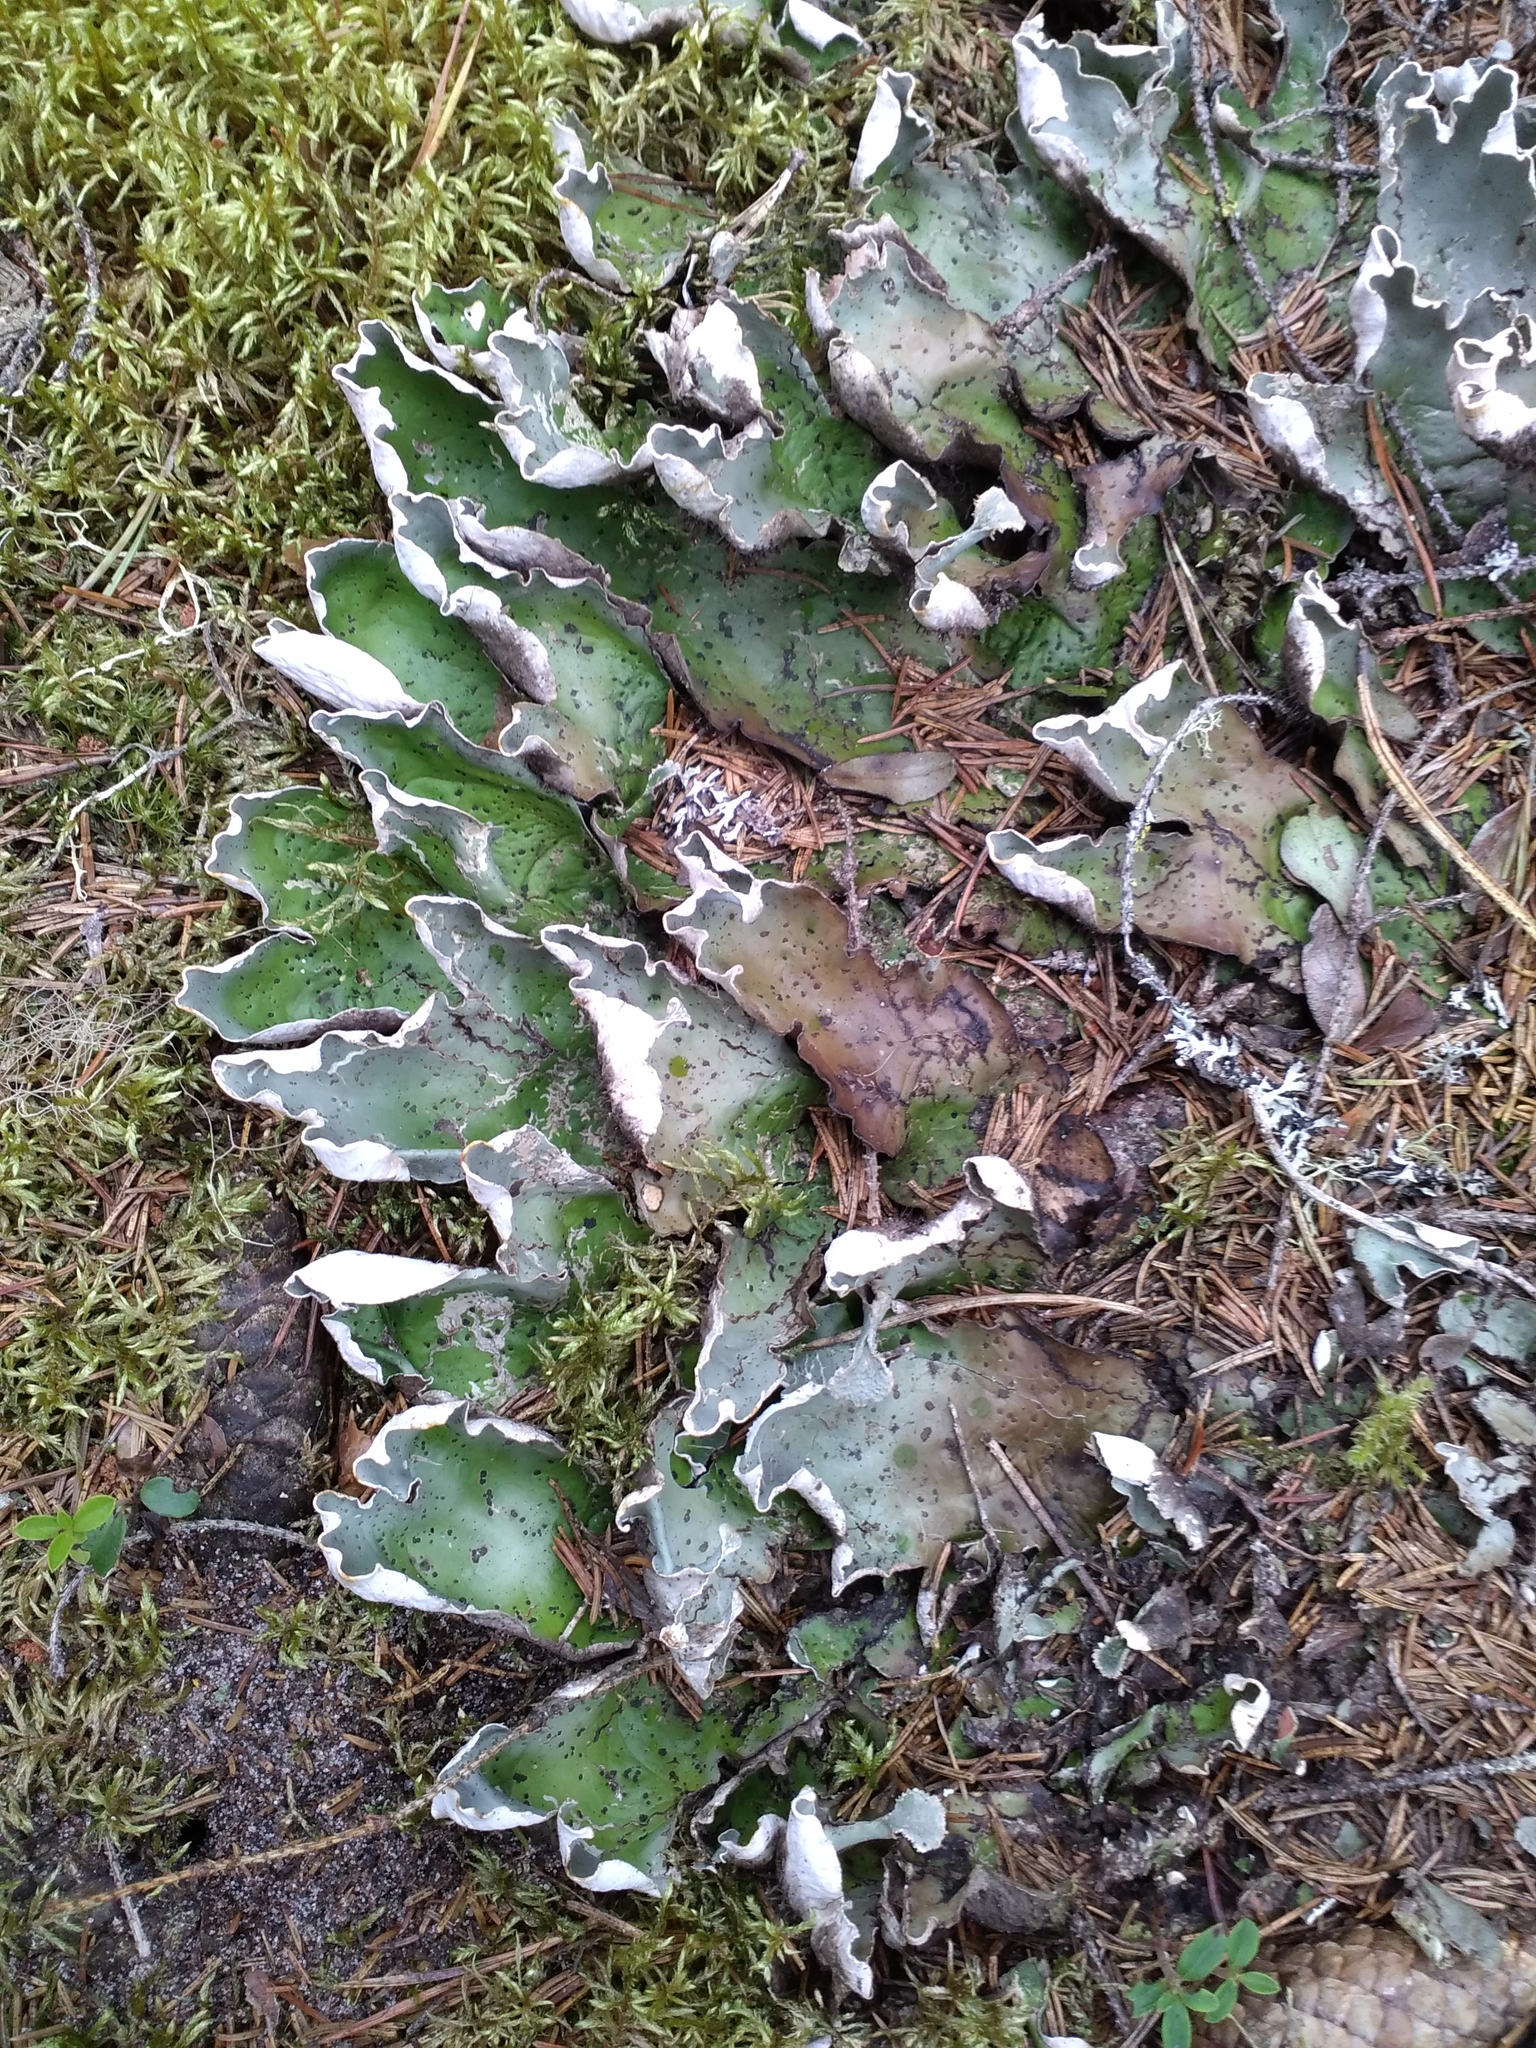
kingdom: Fungi
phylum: Ascomycota
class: Lecanoromycetes
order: Peltigerales
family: Peltigeraceae
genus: Peltigera
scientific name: Peltigera aphthosa
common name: Common freckle pelt lichen
